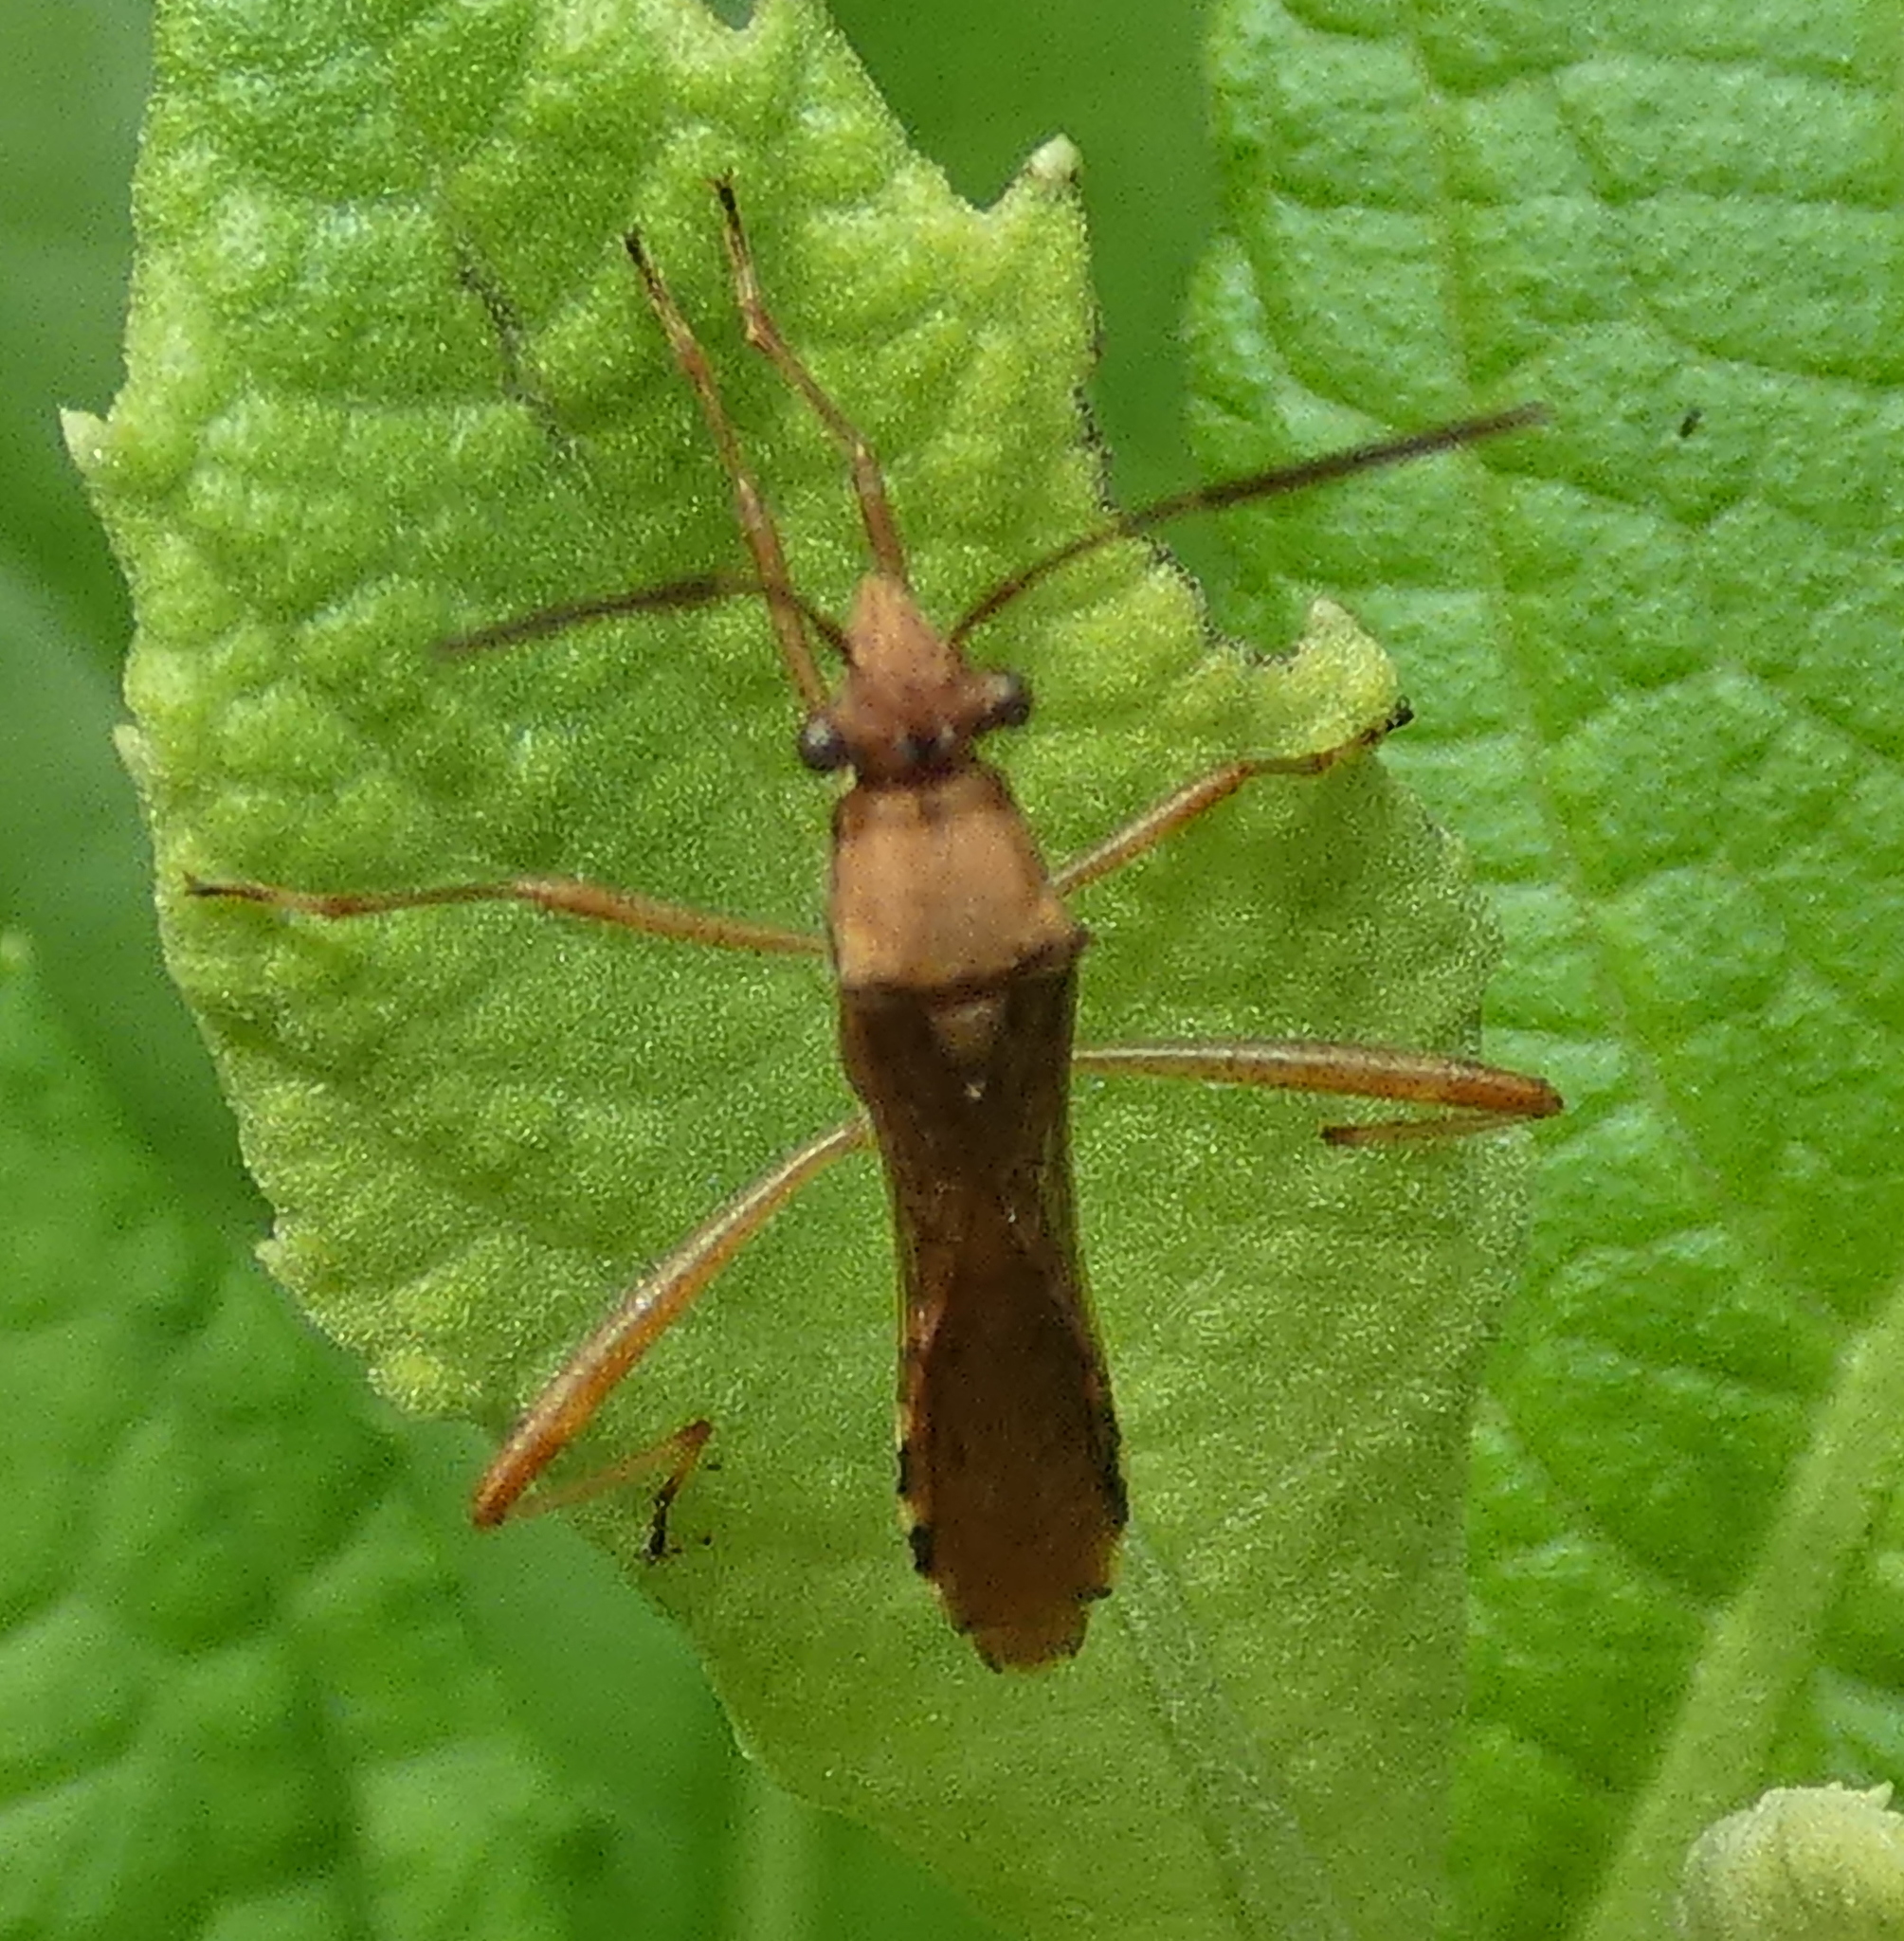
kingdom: Animalia
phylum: Arthropoda
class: Insecta
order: Hemiptera
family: Alydidae
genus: Neomegalotomus
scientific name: Neomegalotomus parvus
